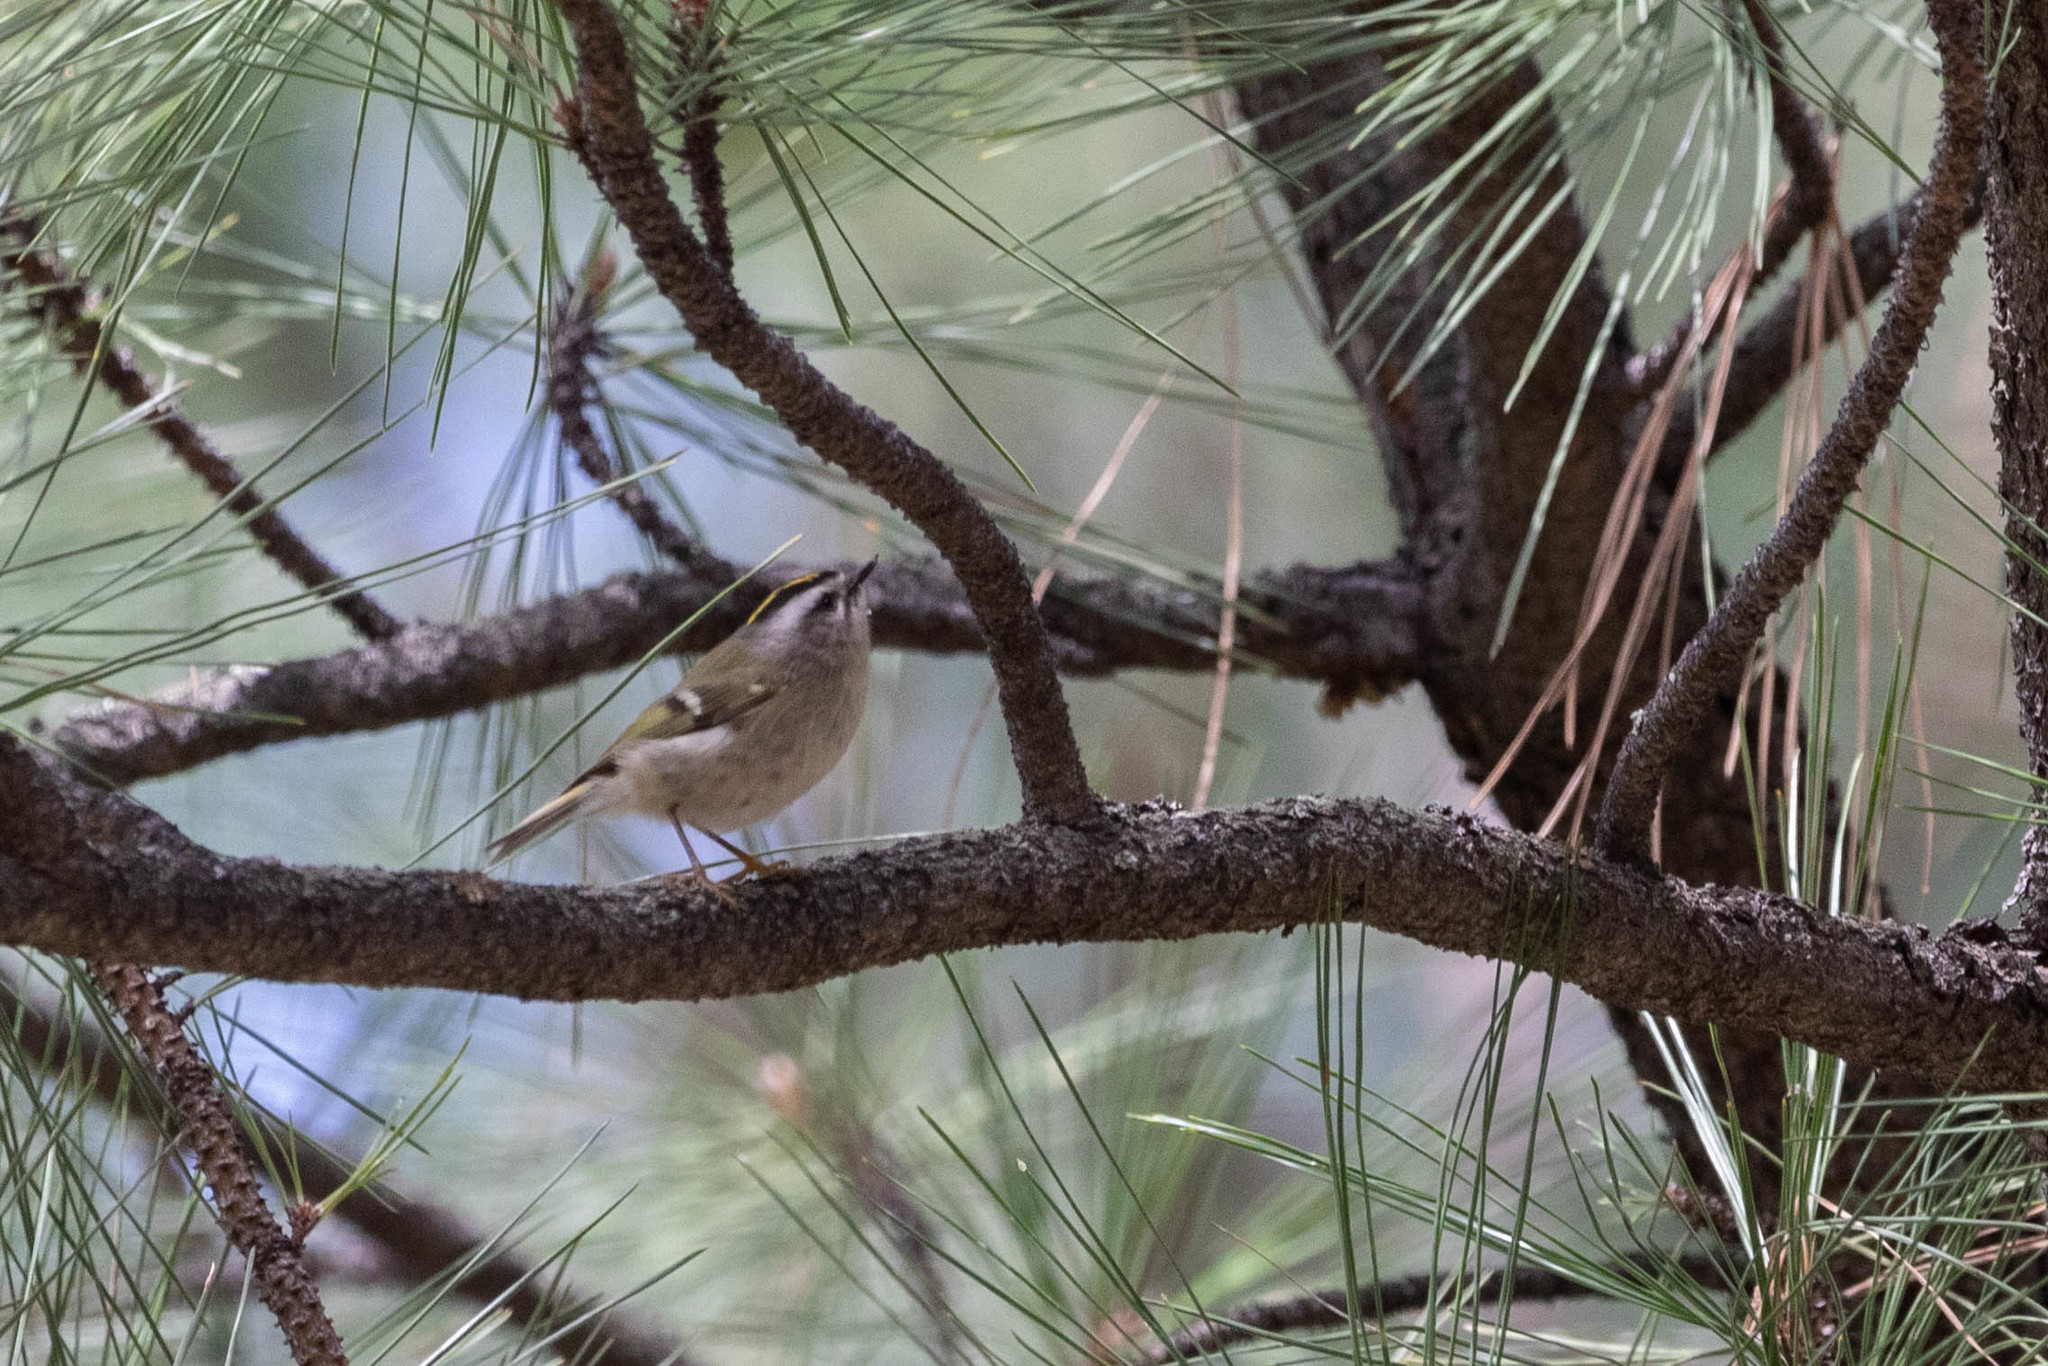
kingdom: Animalia
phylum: Chordata
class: Aves
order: Passeriformes
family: Regulidae
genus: Regulus
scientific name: Regulus satrapa
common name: Golden-crowned kinglet
